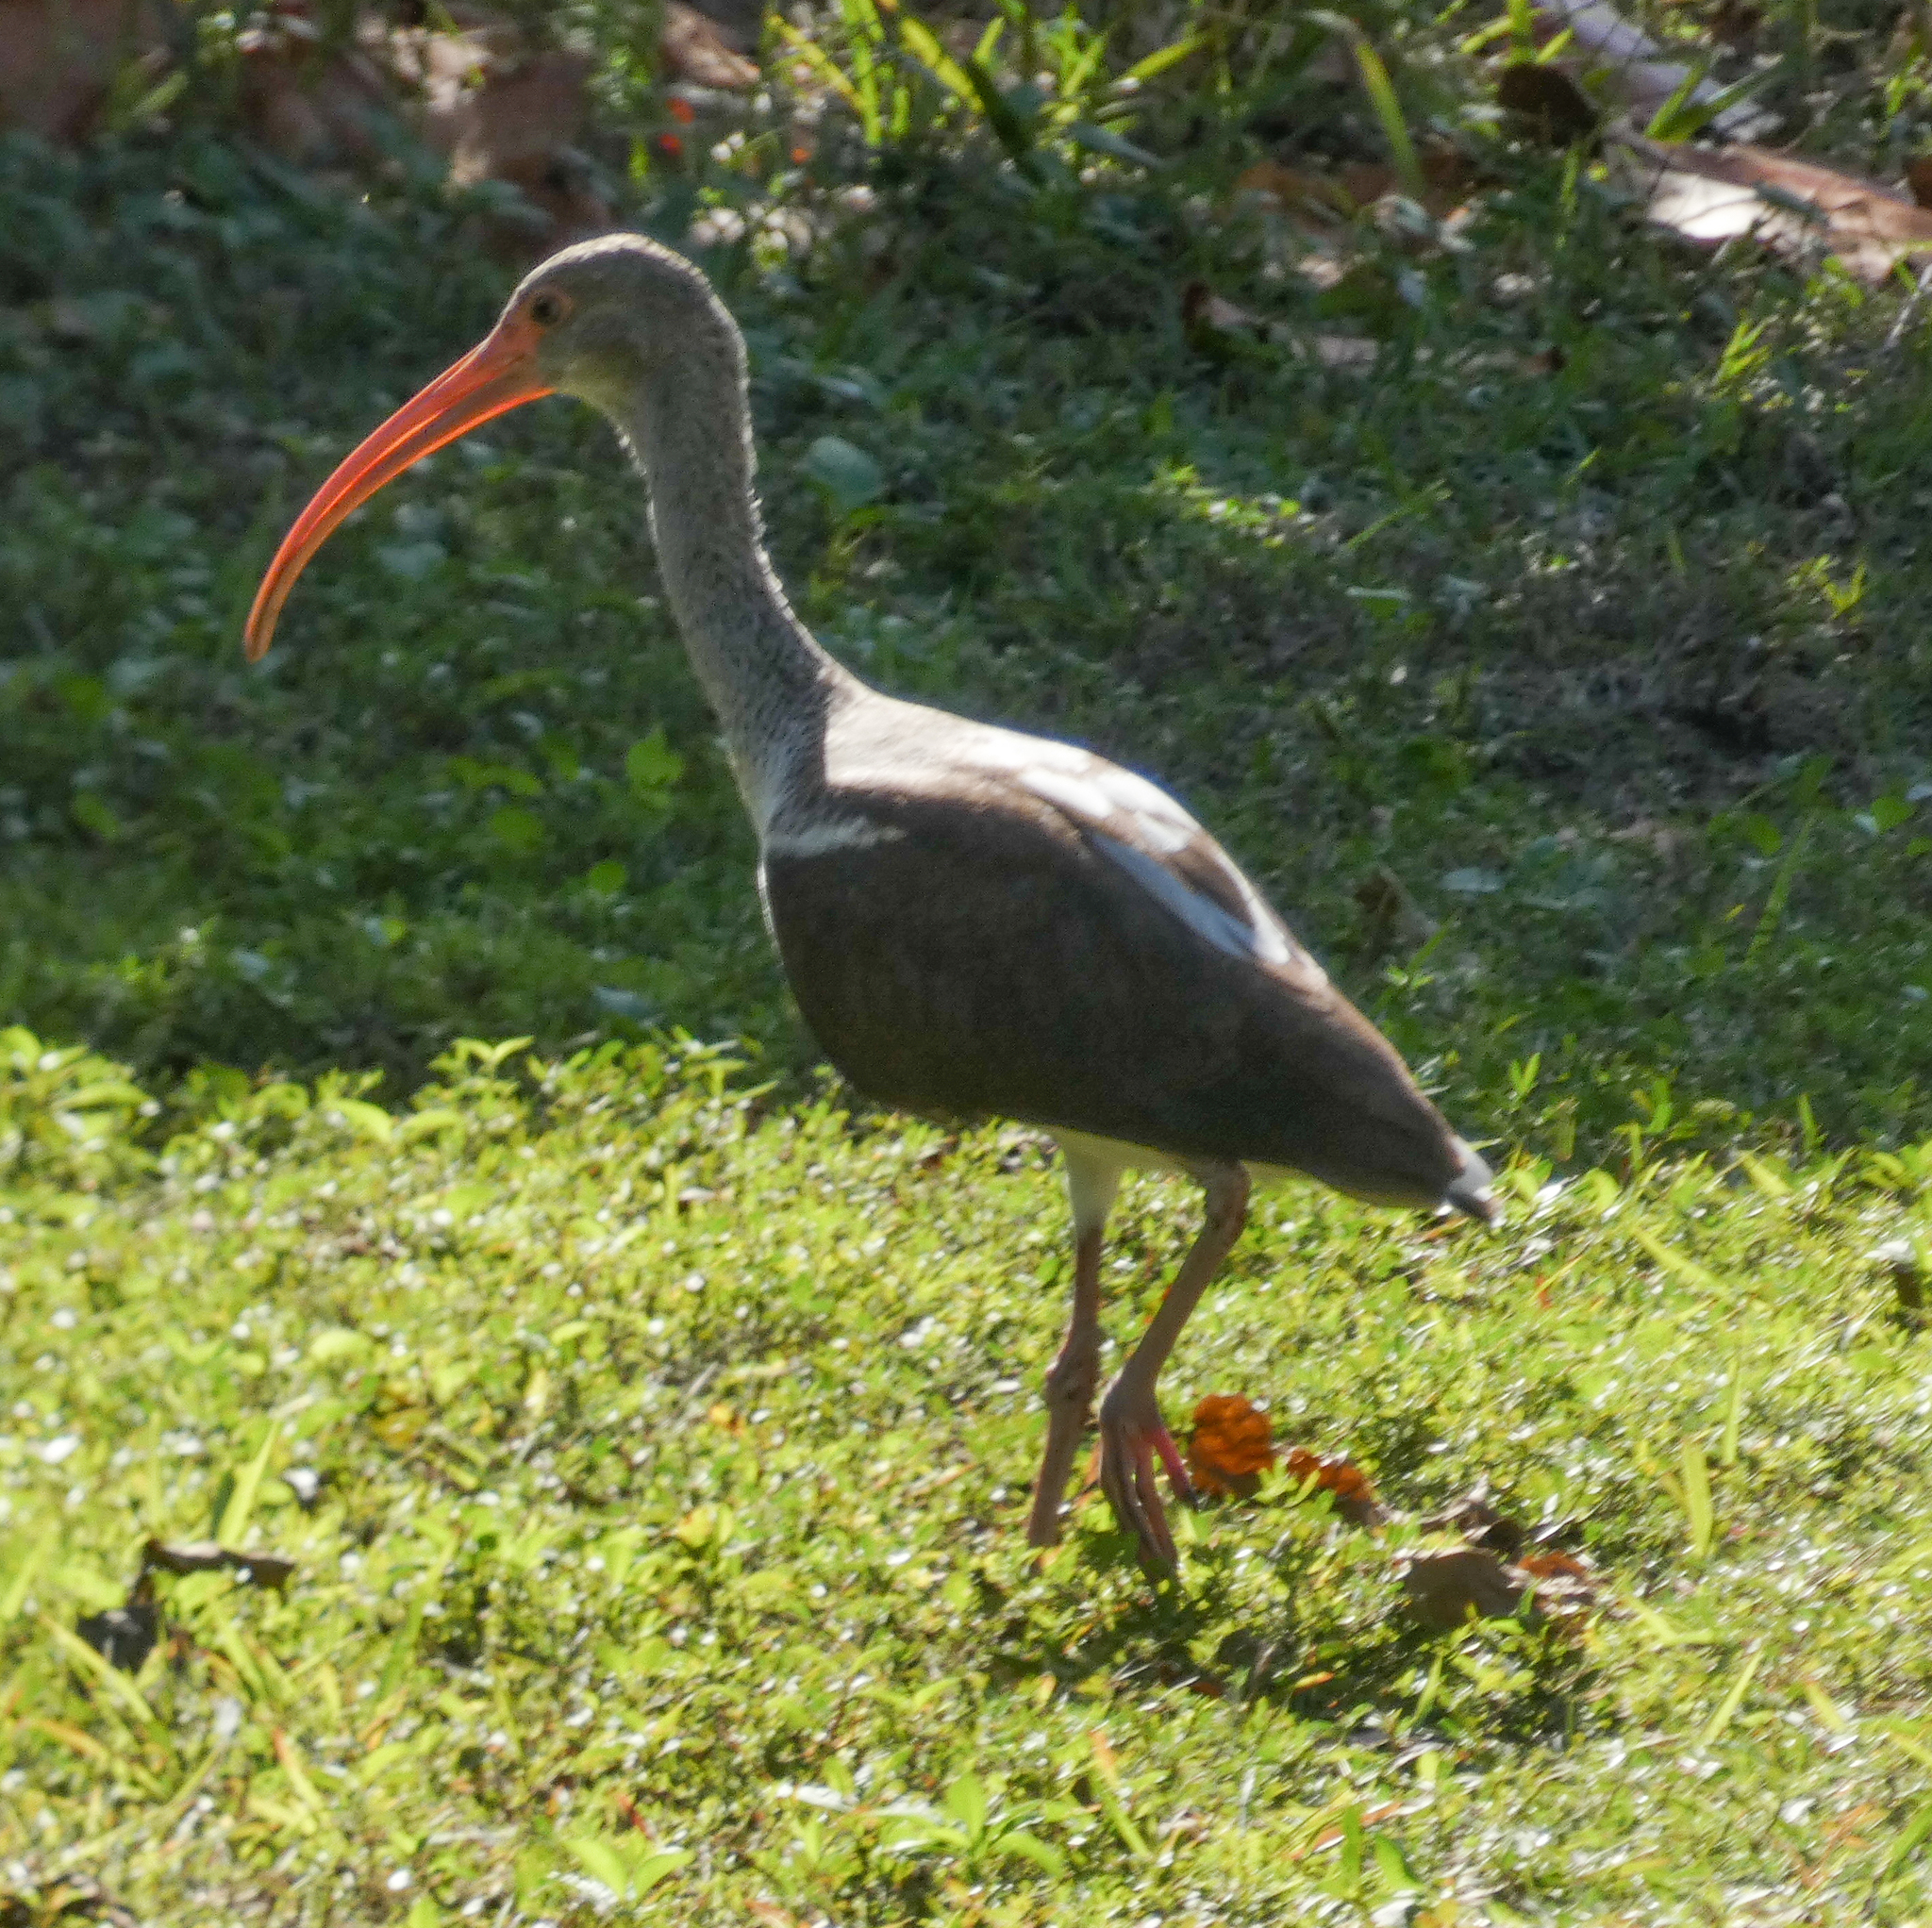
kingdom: Animalia
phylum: Chordata
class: Aves
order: Pelecaniformes
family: Threskiornithidae
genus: Eudocimus
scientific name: Eudocimus albus
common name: White ibis
